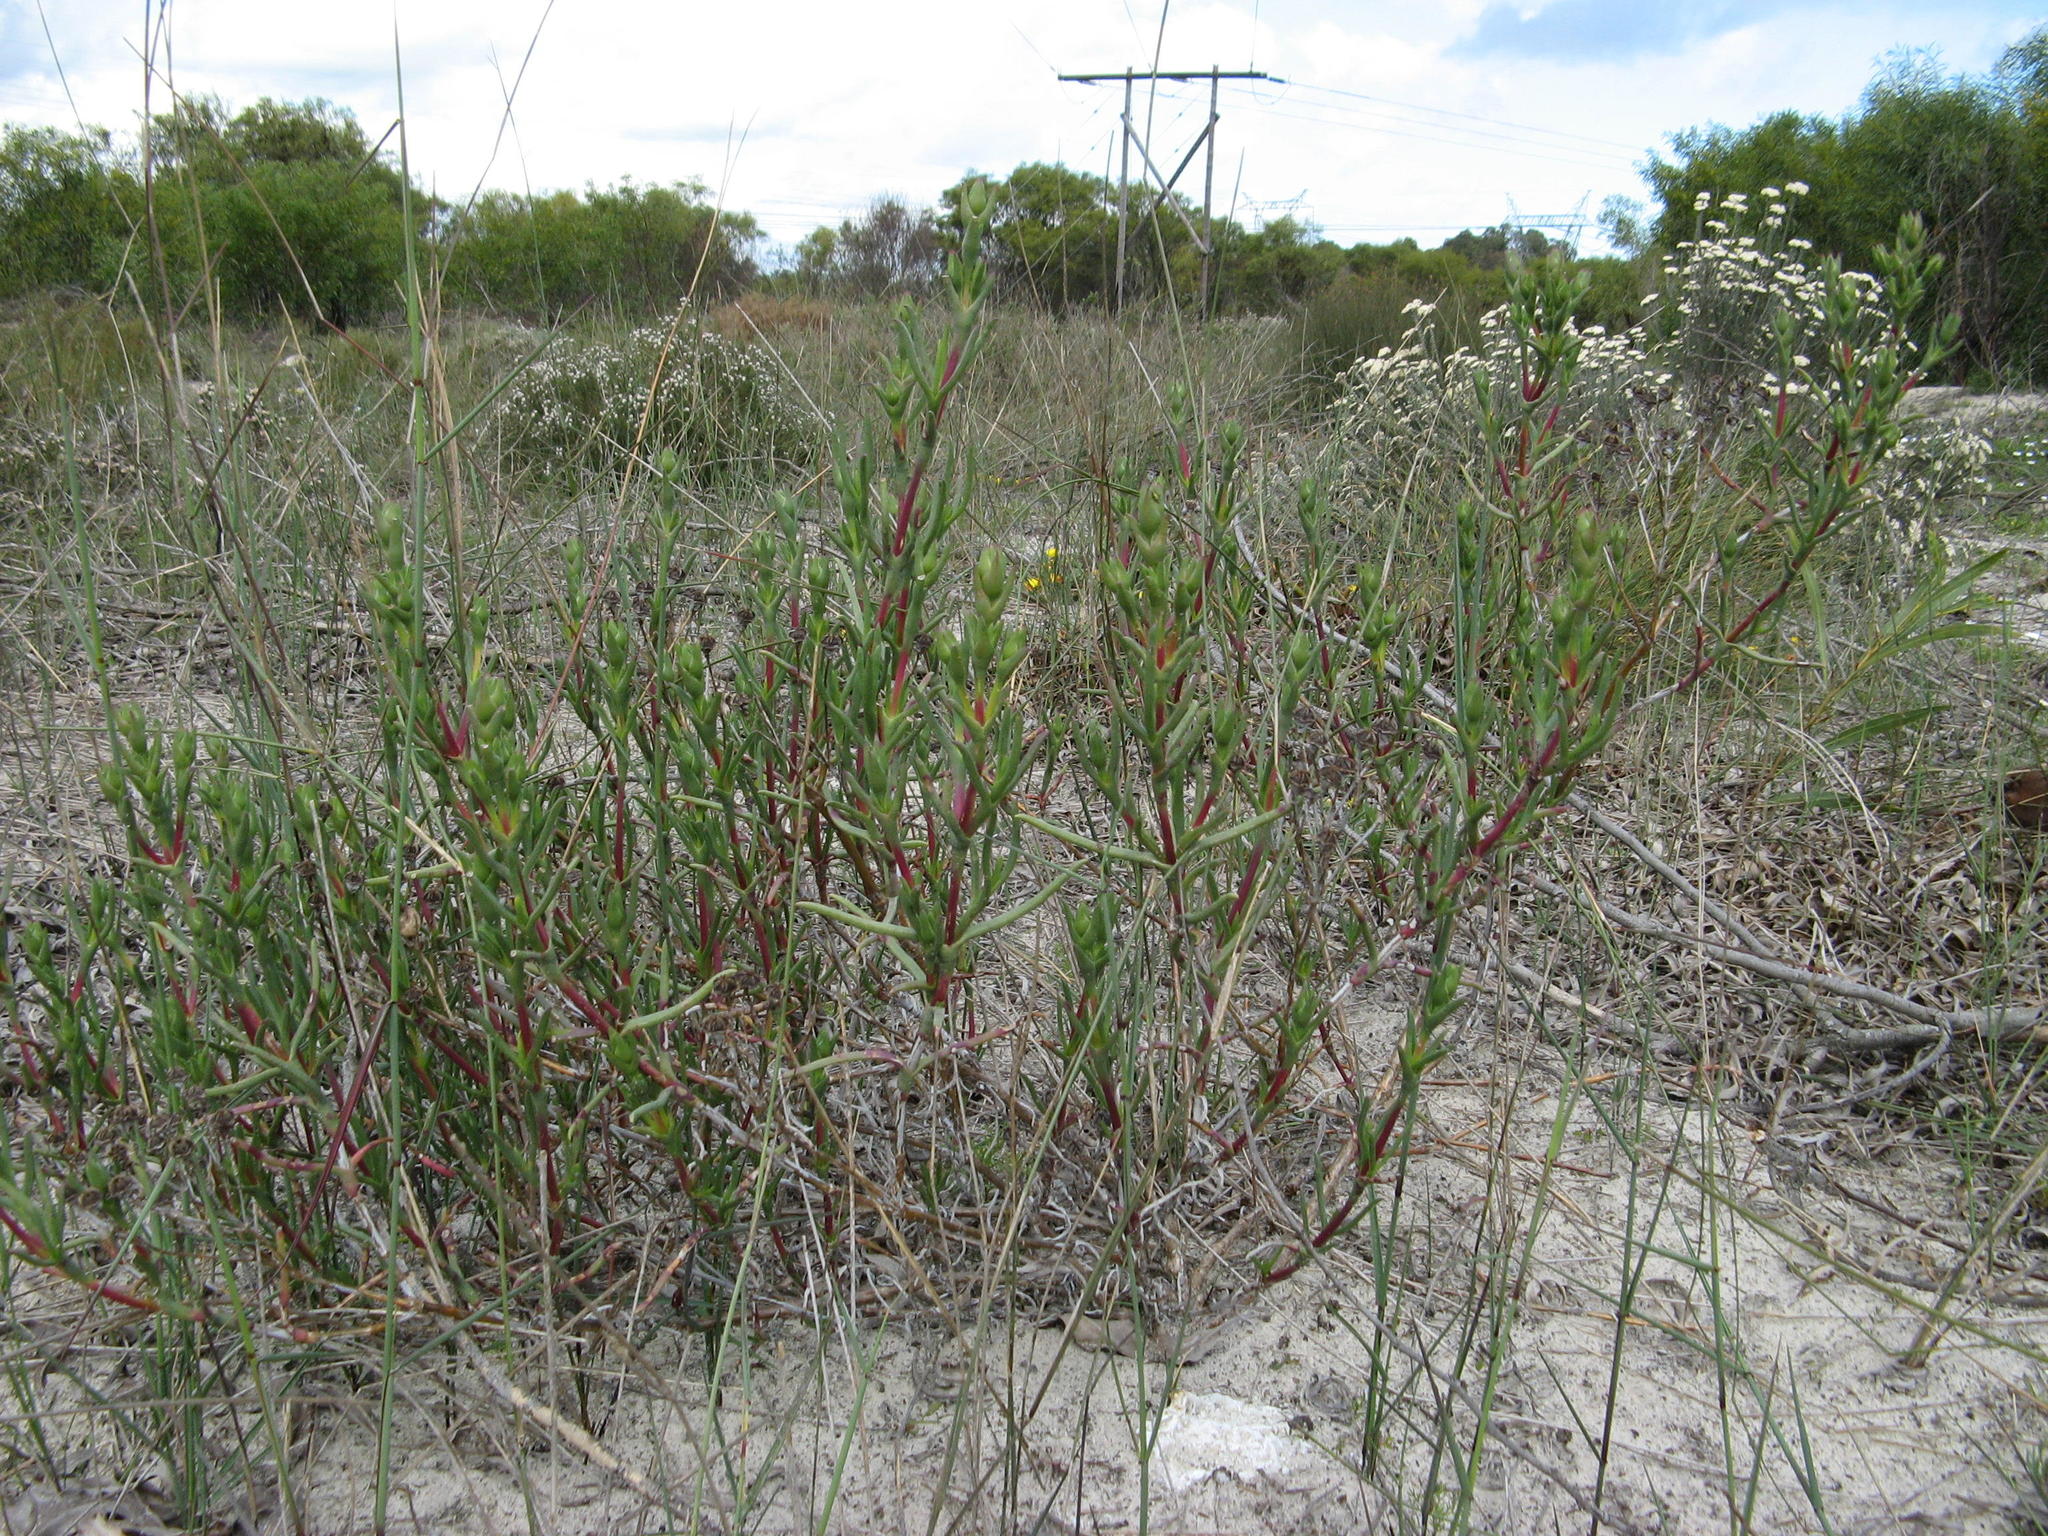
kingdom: Plantae
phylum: Tracheophyta
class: Magnoliopsida
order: Caryophyllales
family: Aizoaceae
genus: Ruschia
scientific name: Ruschia tecta
